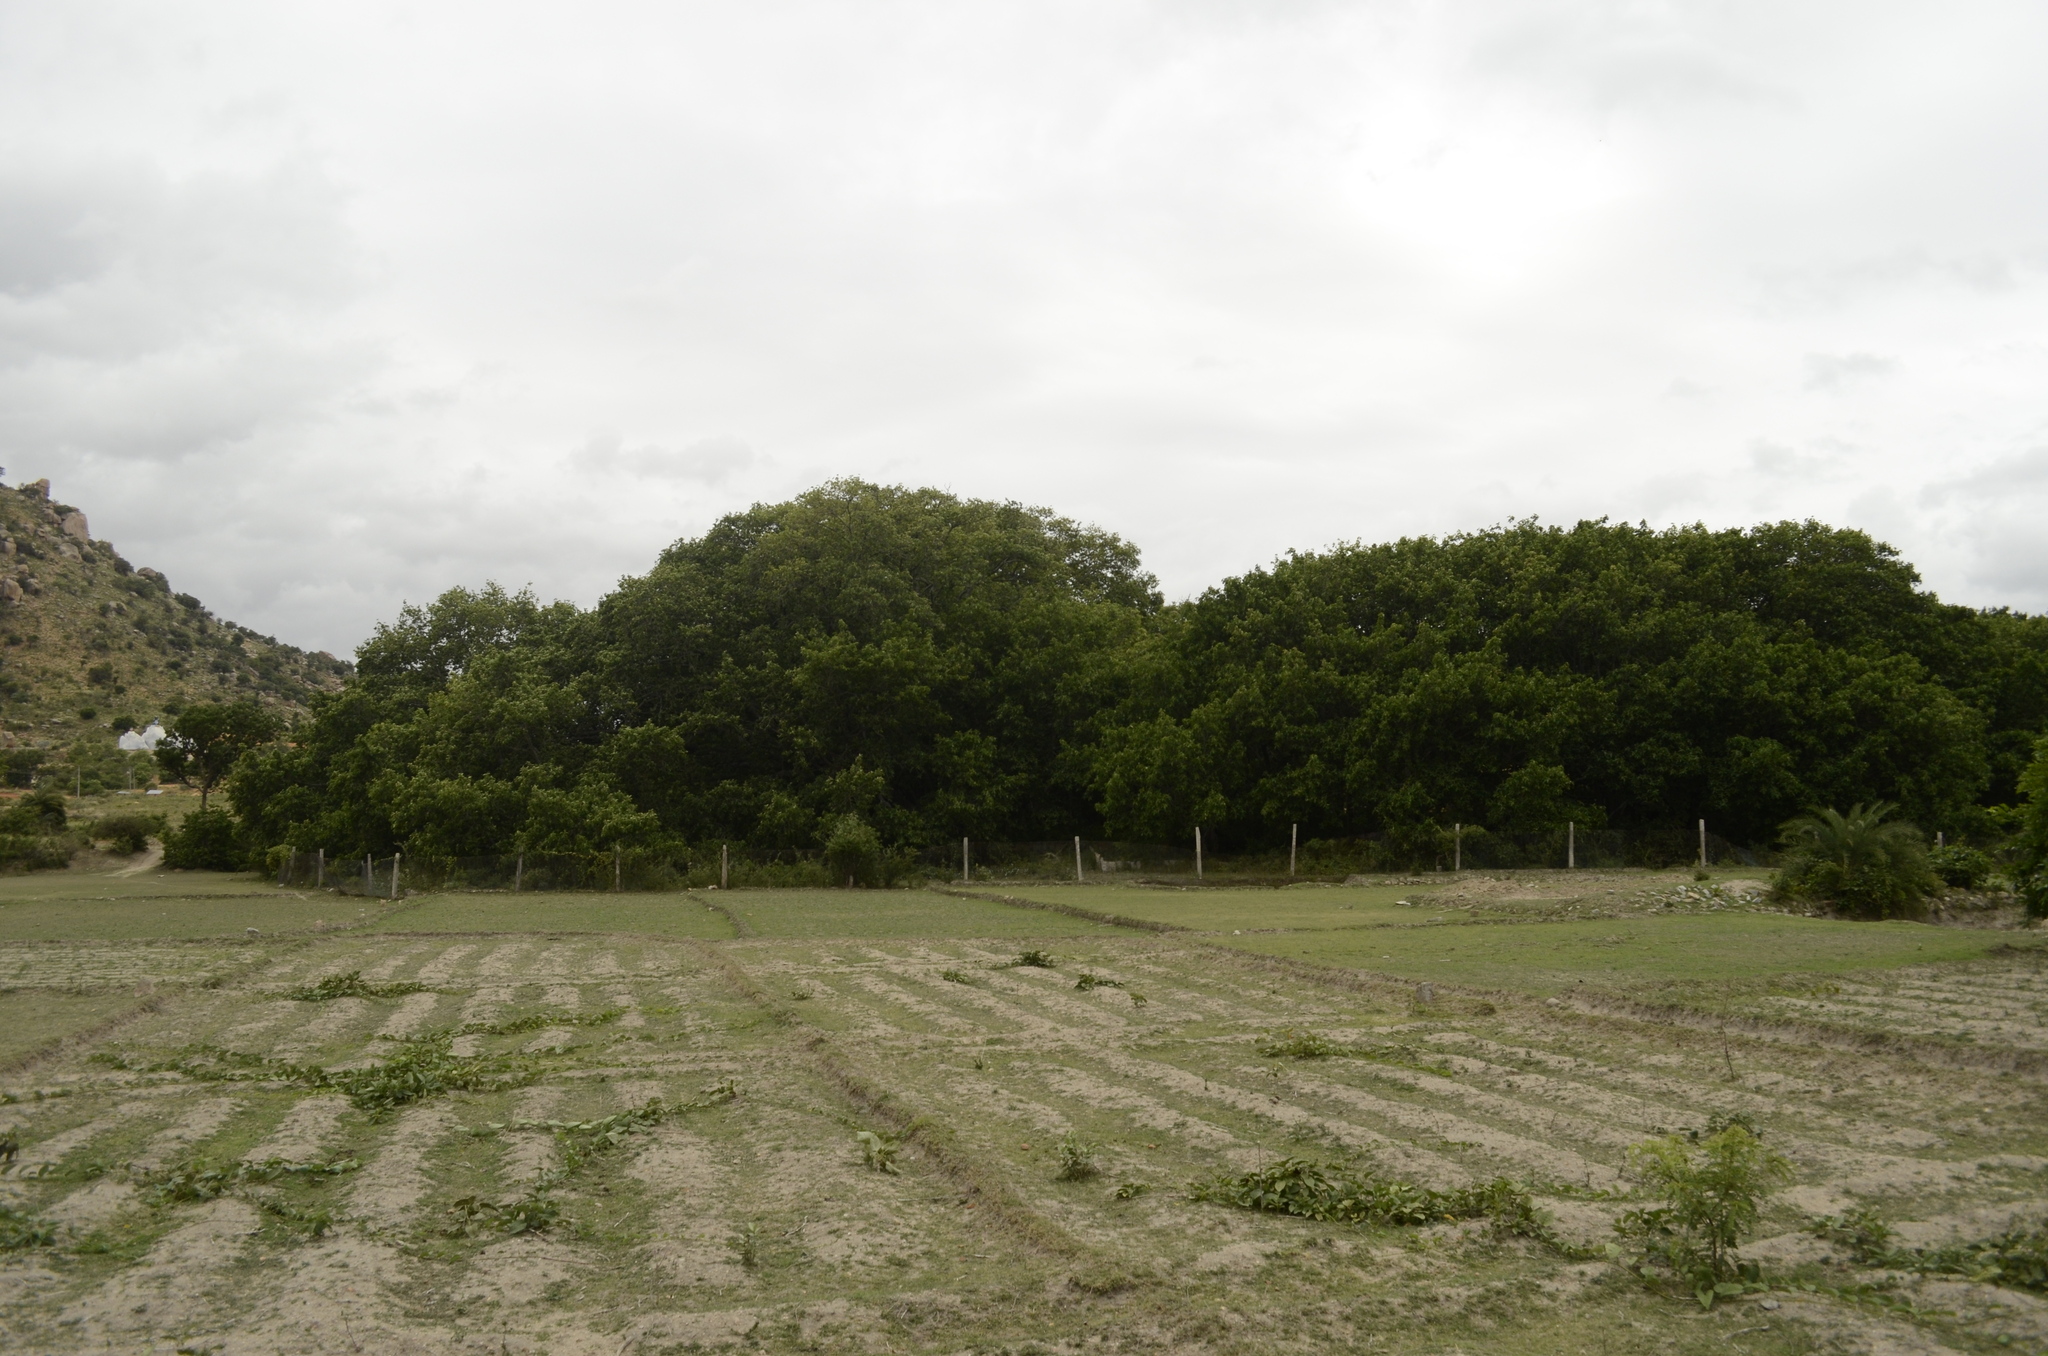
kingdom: Plantae
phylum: Tracheophyta
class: Magnoliopsida
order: Rosales
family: Moraceae
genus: Ficus
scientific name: Ficus benghalensis
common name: Indian banyan
